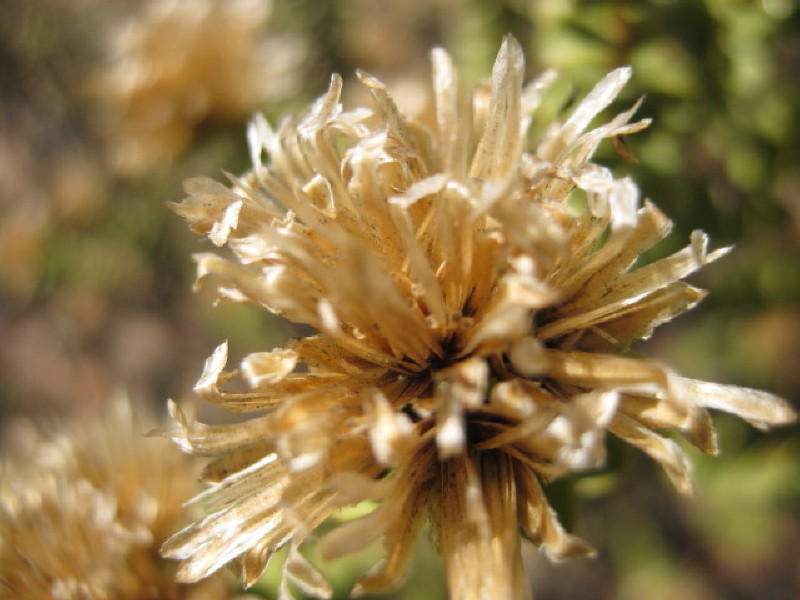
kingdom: Plantae
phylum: Tracheophyta
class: Magnoliopsida
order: Asterales
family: Asteraceae
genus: Oedera
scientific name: Oedera squarrosa
